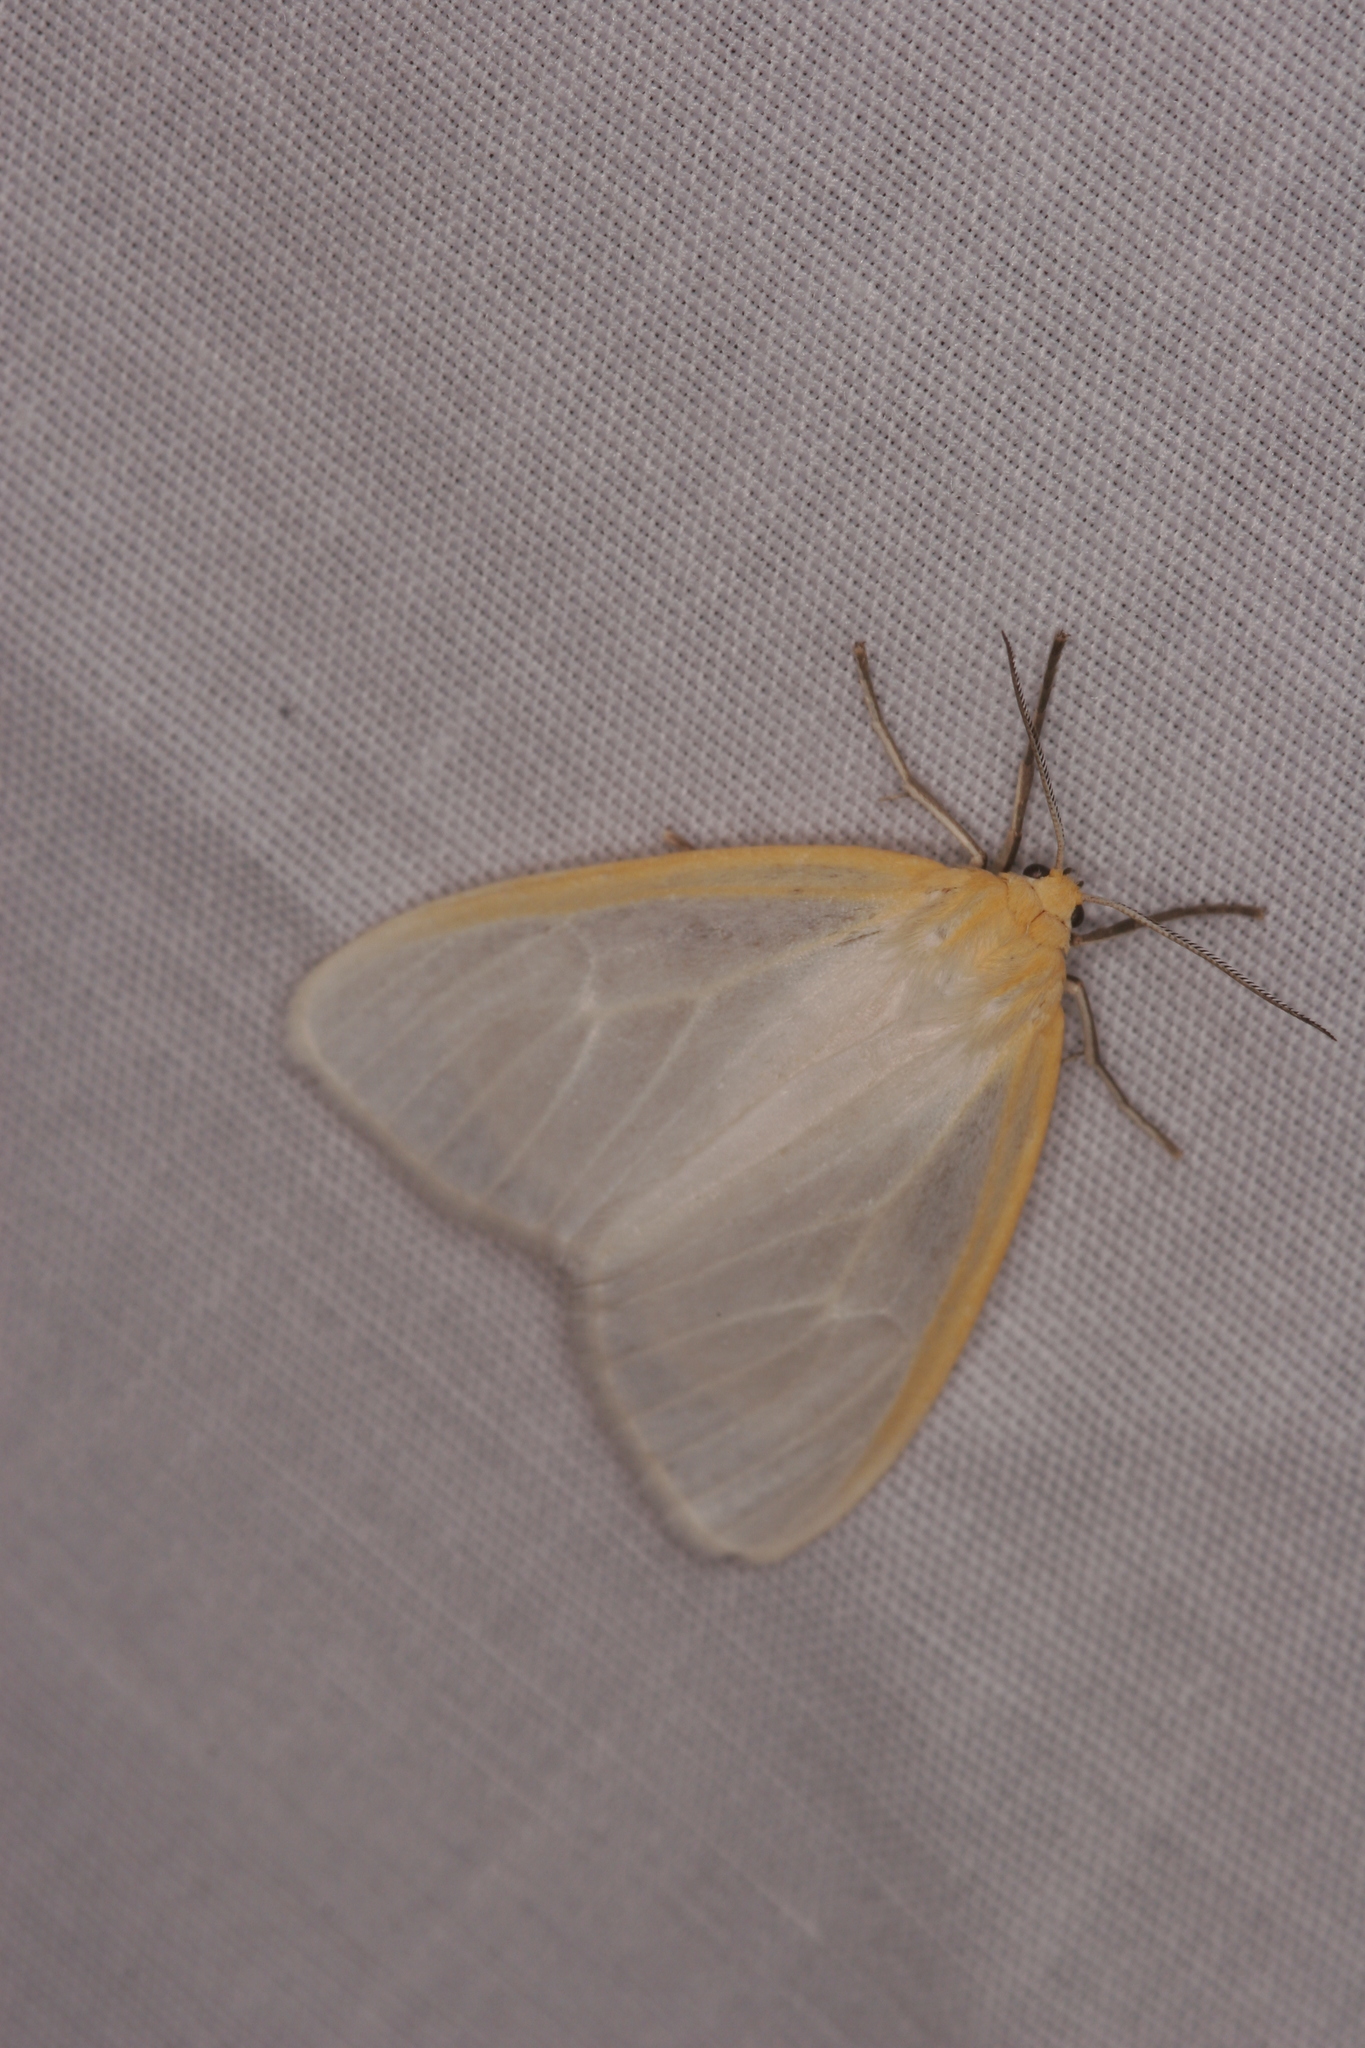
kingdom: Animalia
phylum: Arthropoda
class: Insecta
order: Lepidoptera
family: Erebidae
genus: Cycnia
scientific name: Cycnia tenera
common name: Delicate cycnia moth
